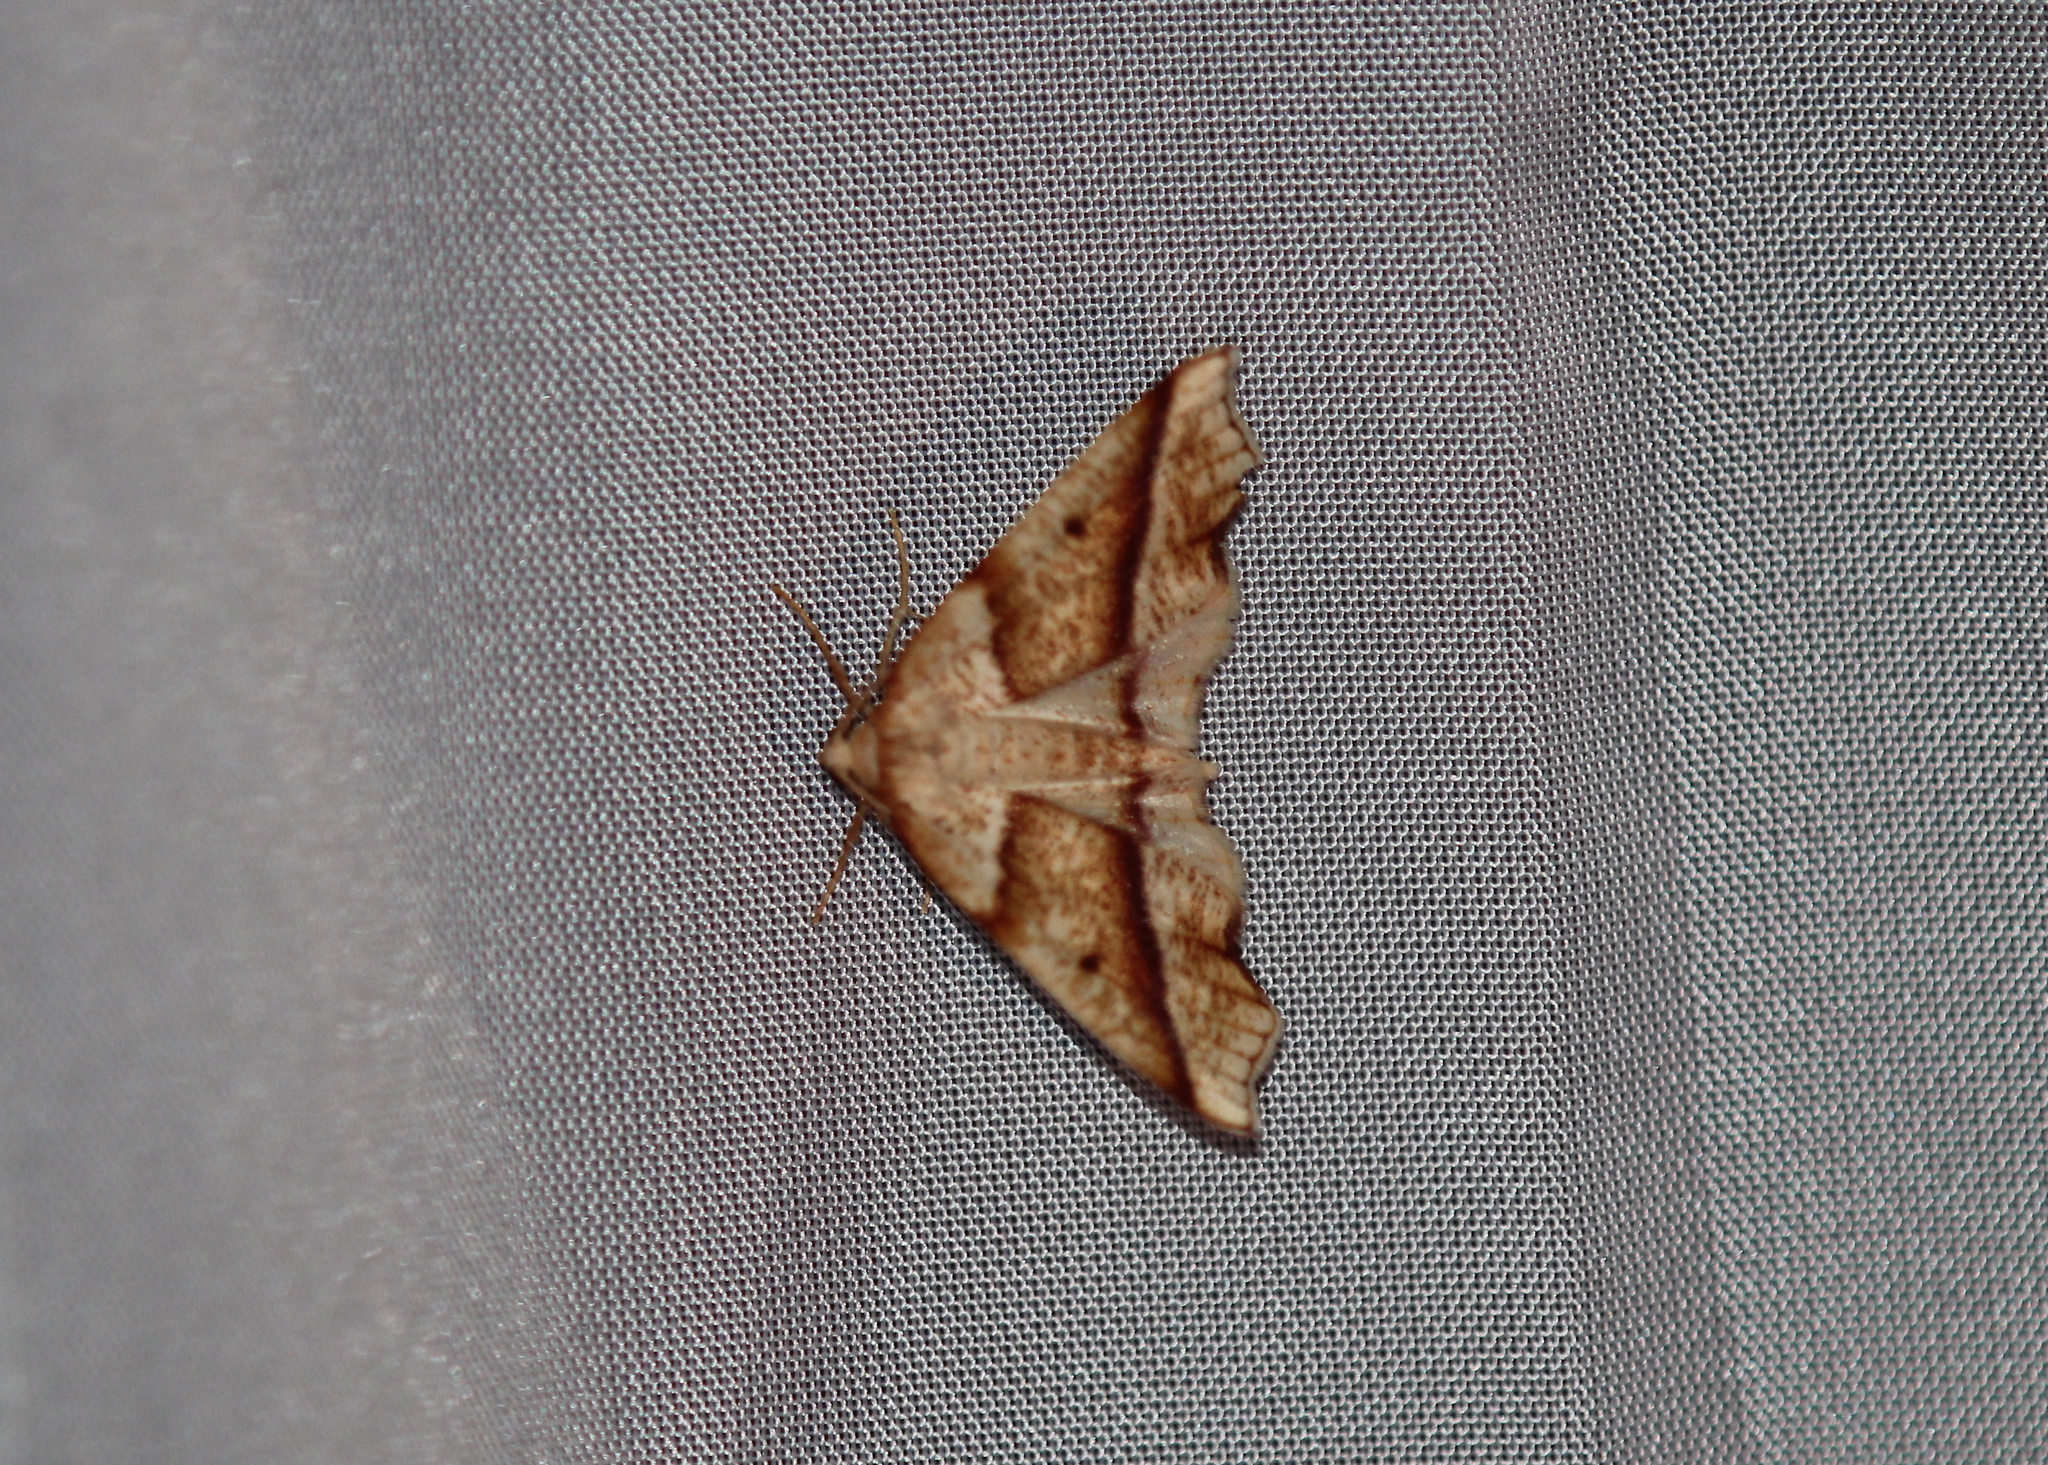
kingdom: Animalia
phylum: Arthropoda
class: Insecta
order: Lepidoptera
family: Geometridae
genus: Plagodis
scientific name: Plagodis alcoolaria
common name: Hollow-spotted plagodis
